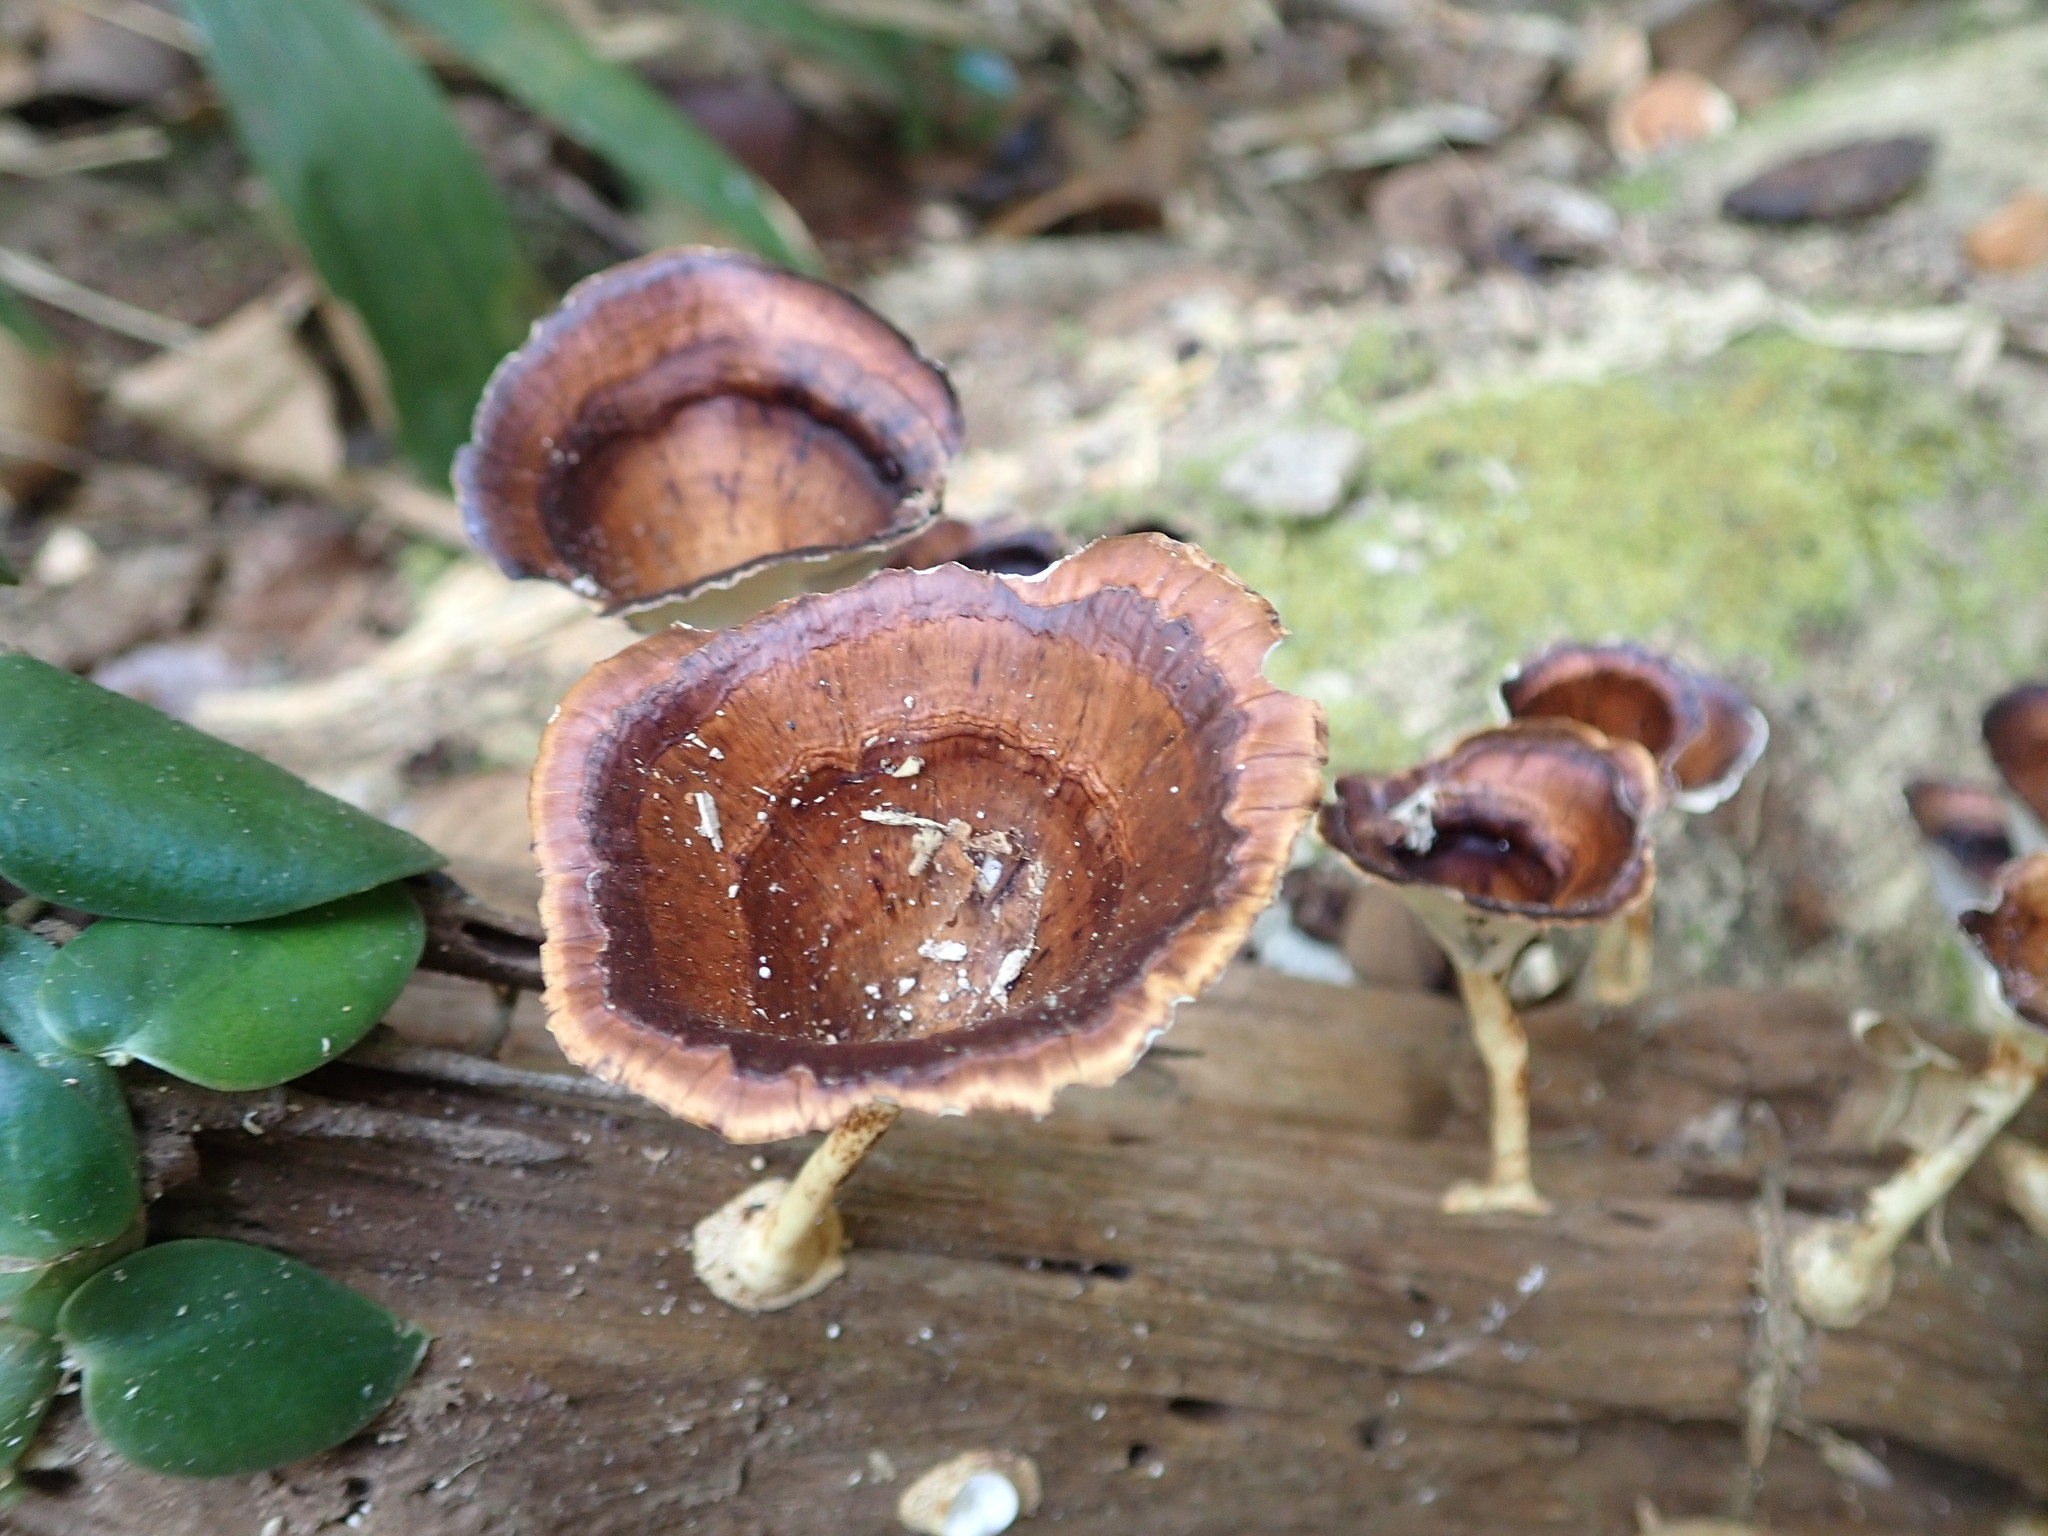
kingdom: Fungi
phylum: Basidiomycota
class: Agaricomycetes
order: Polyporales
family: Polyporaceae
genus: Microporus
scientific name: Microporus xanthopus
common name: Yellow-stemmed micropore
